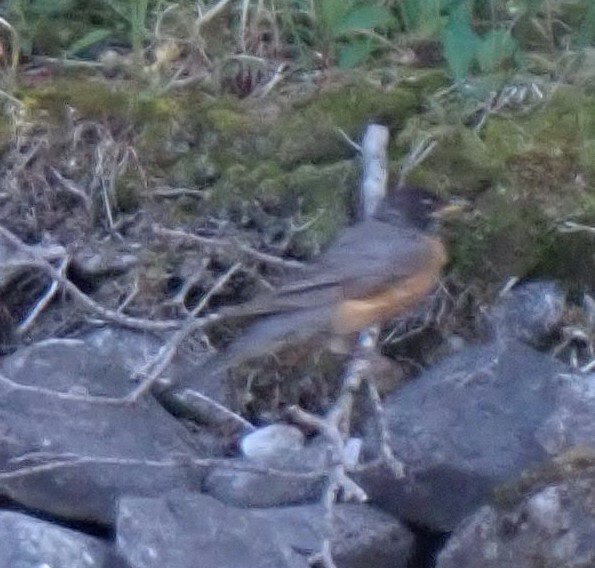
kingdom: Animalia
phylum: Chordata
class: Aves
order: Passeriformes
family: Turdidae
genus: Turdus
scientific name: Turdus migratorius
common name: American robin
